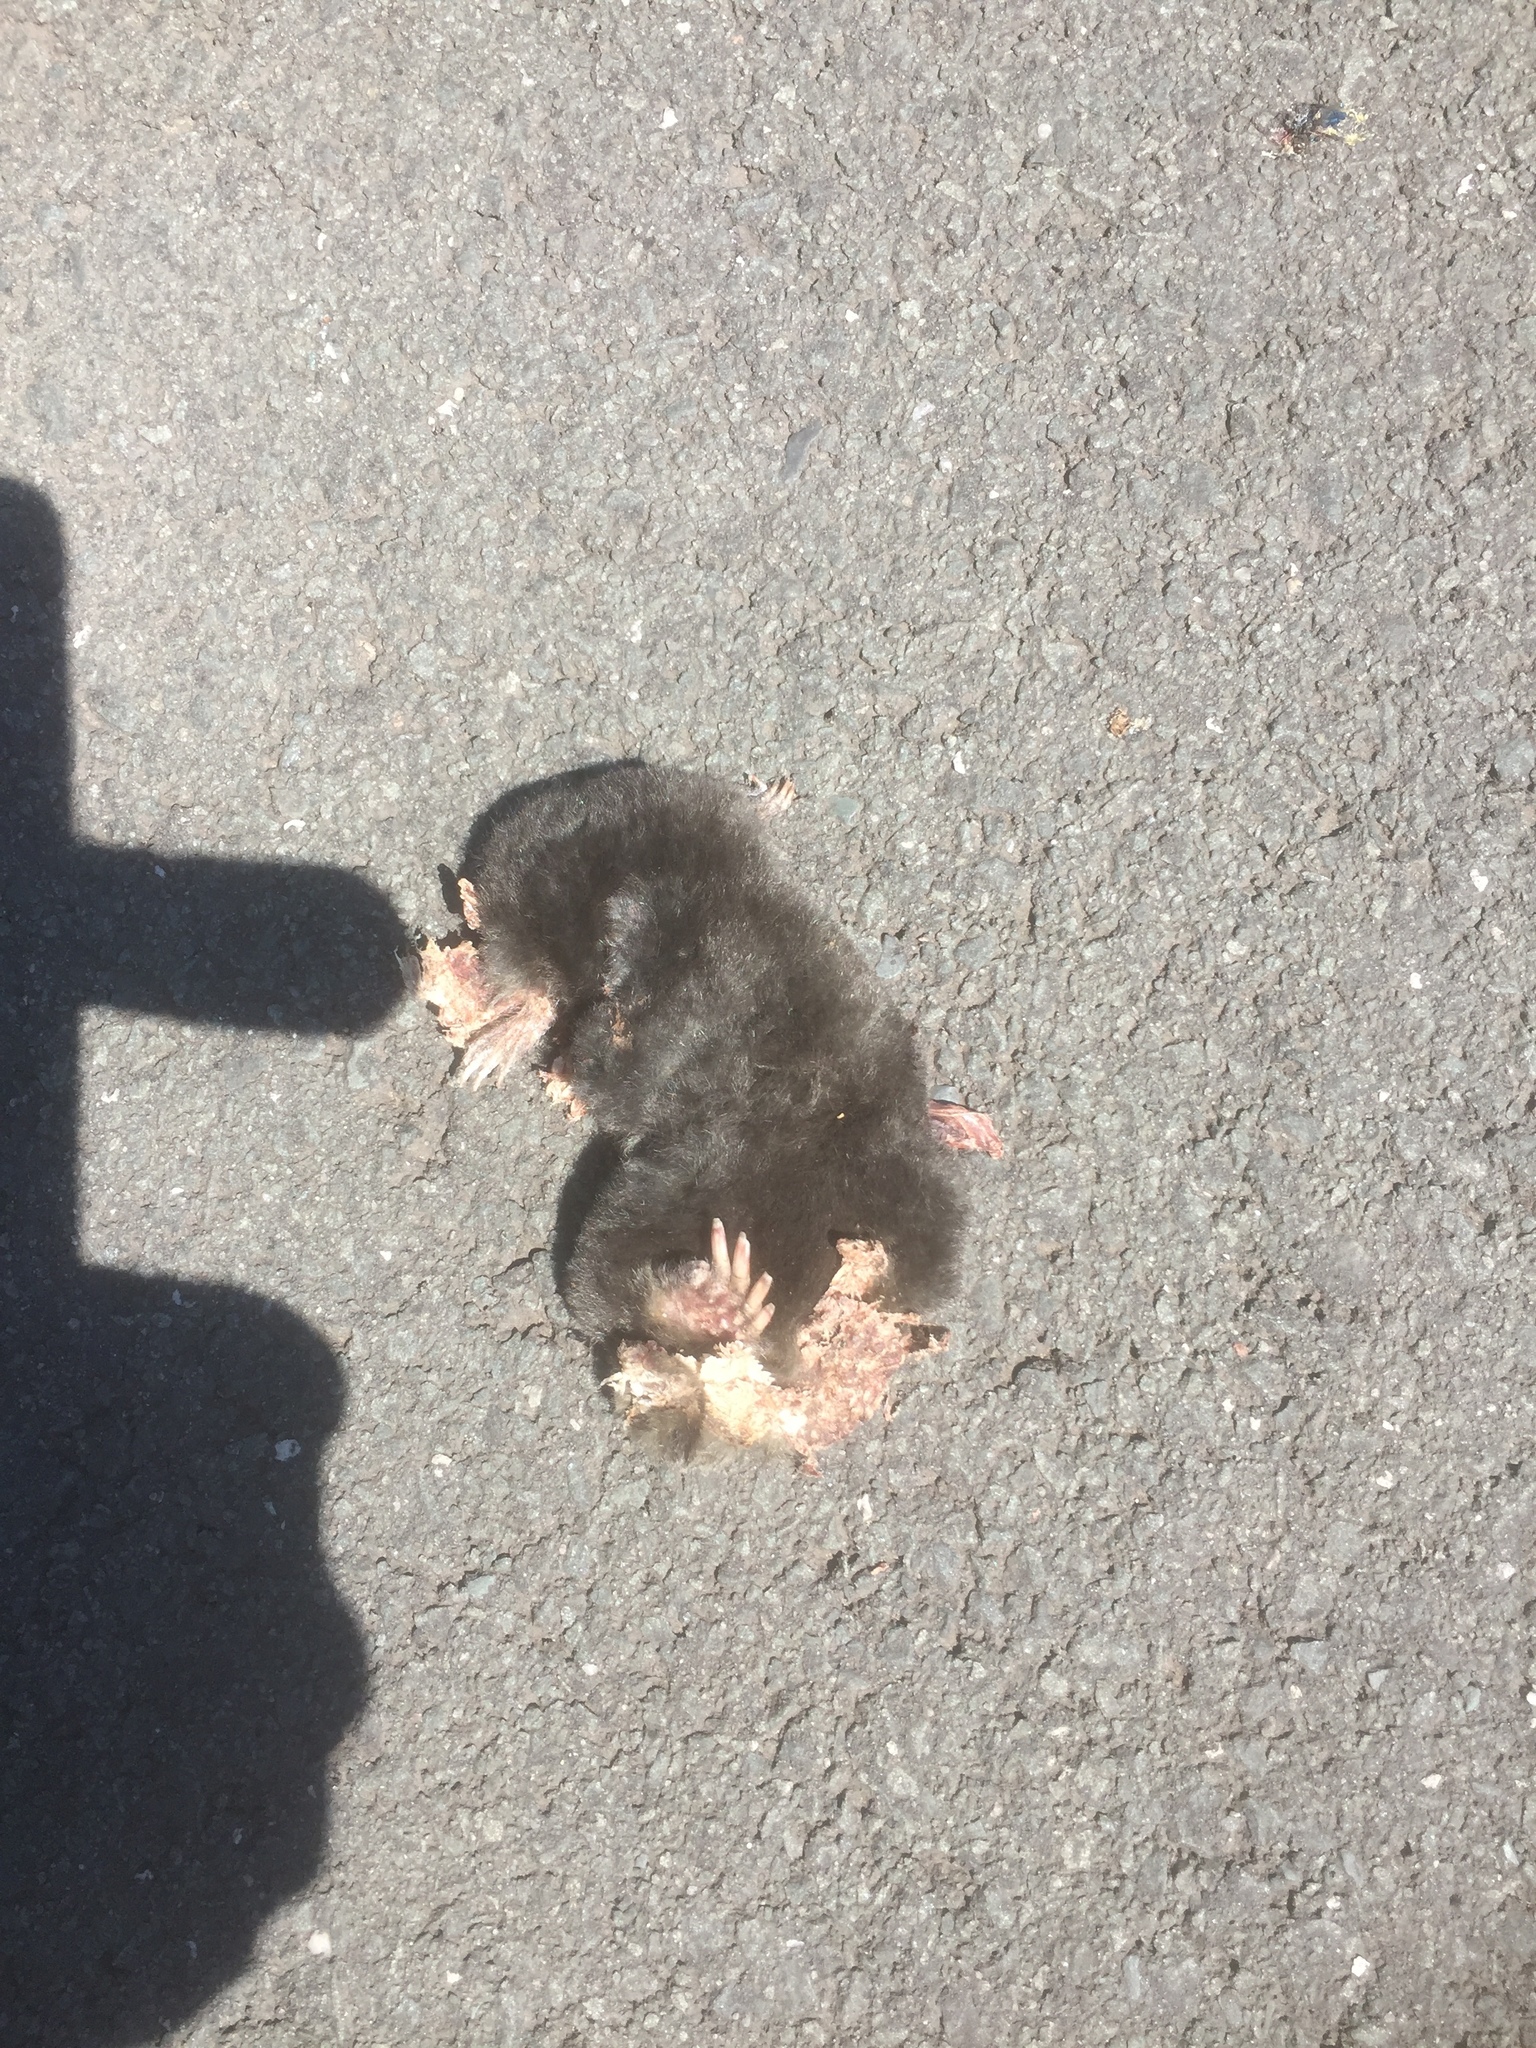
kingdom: Animalia
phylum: Chordata
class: Mammalia
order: Soricomorpha
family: Talpidae
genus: Talpa
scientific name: Talpa europaea
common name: European mole
